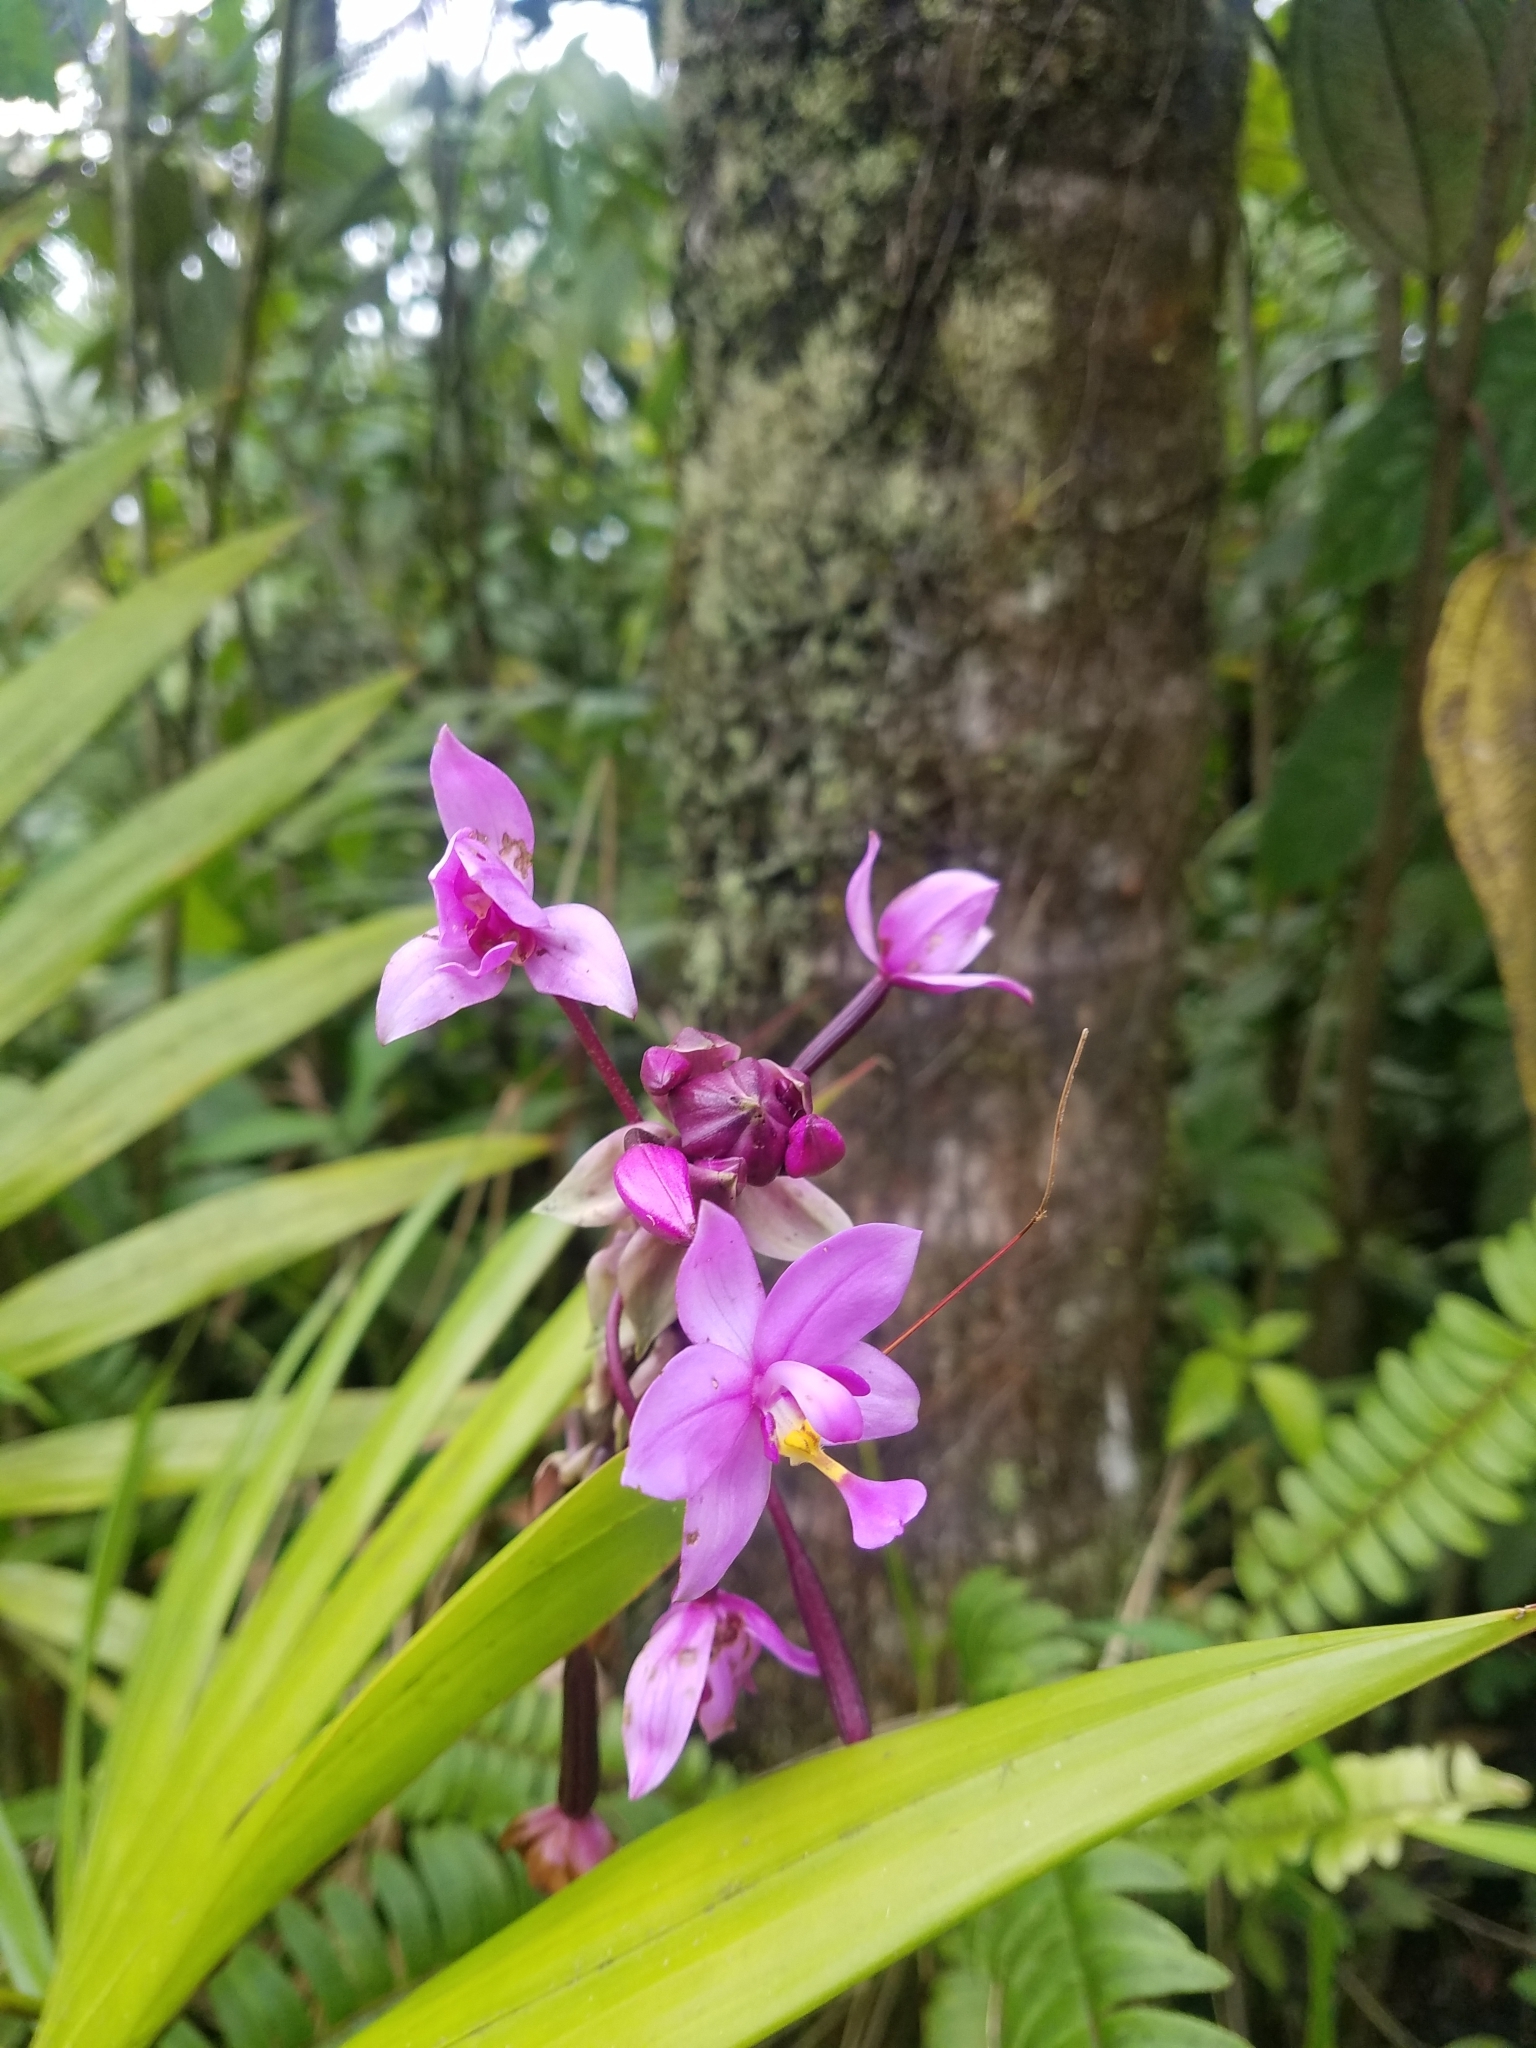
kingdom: Plantae
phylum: Tracheophyta
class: Liliopsida
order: Asparagales
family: Orchidaceae
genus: Spathoglottis
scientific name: Spathoglottis plicata
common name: Philippine ground orchid
